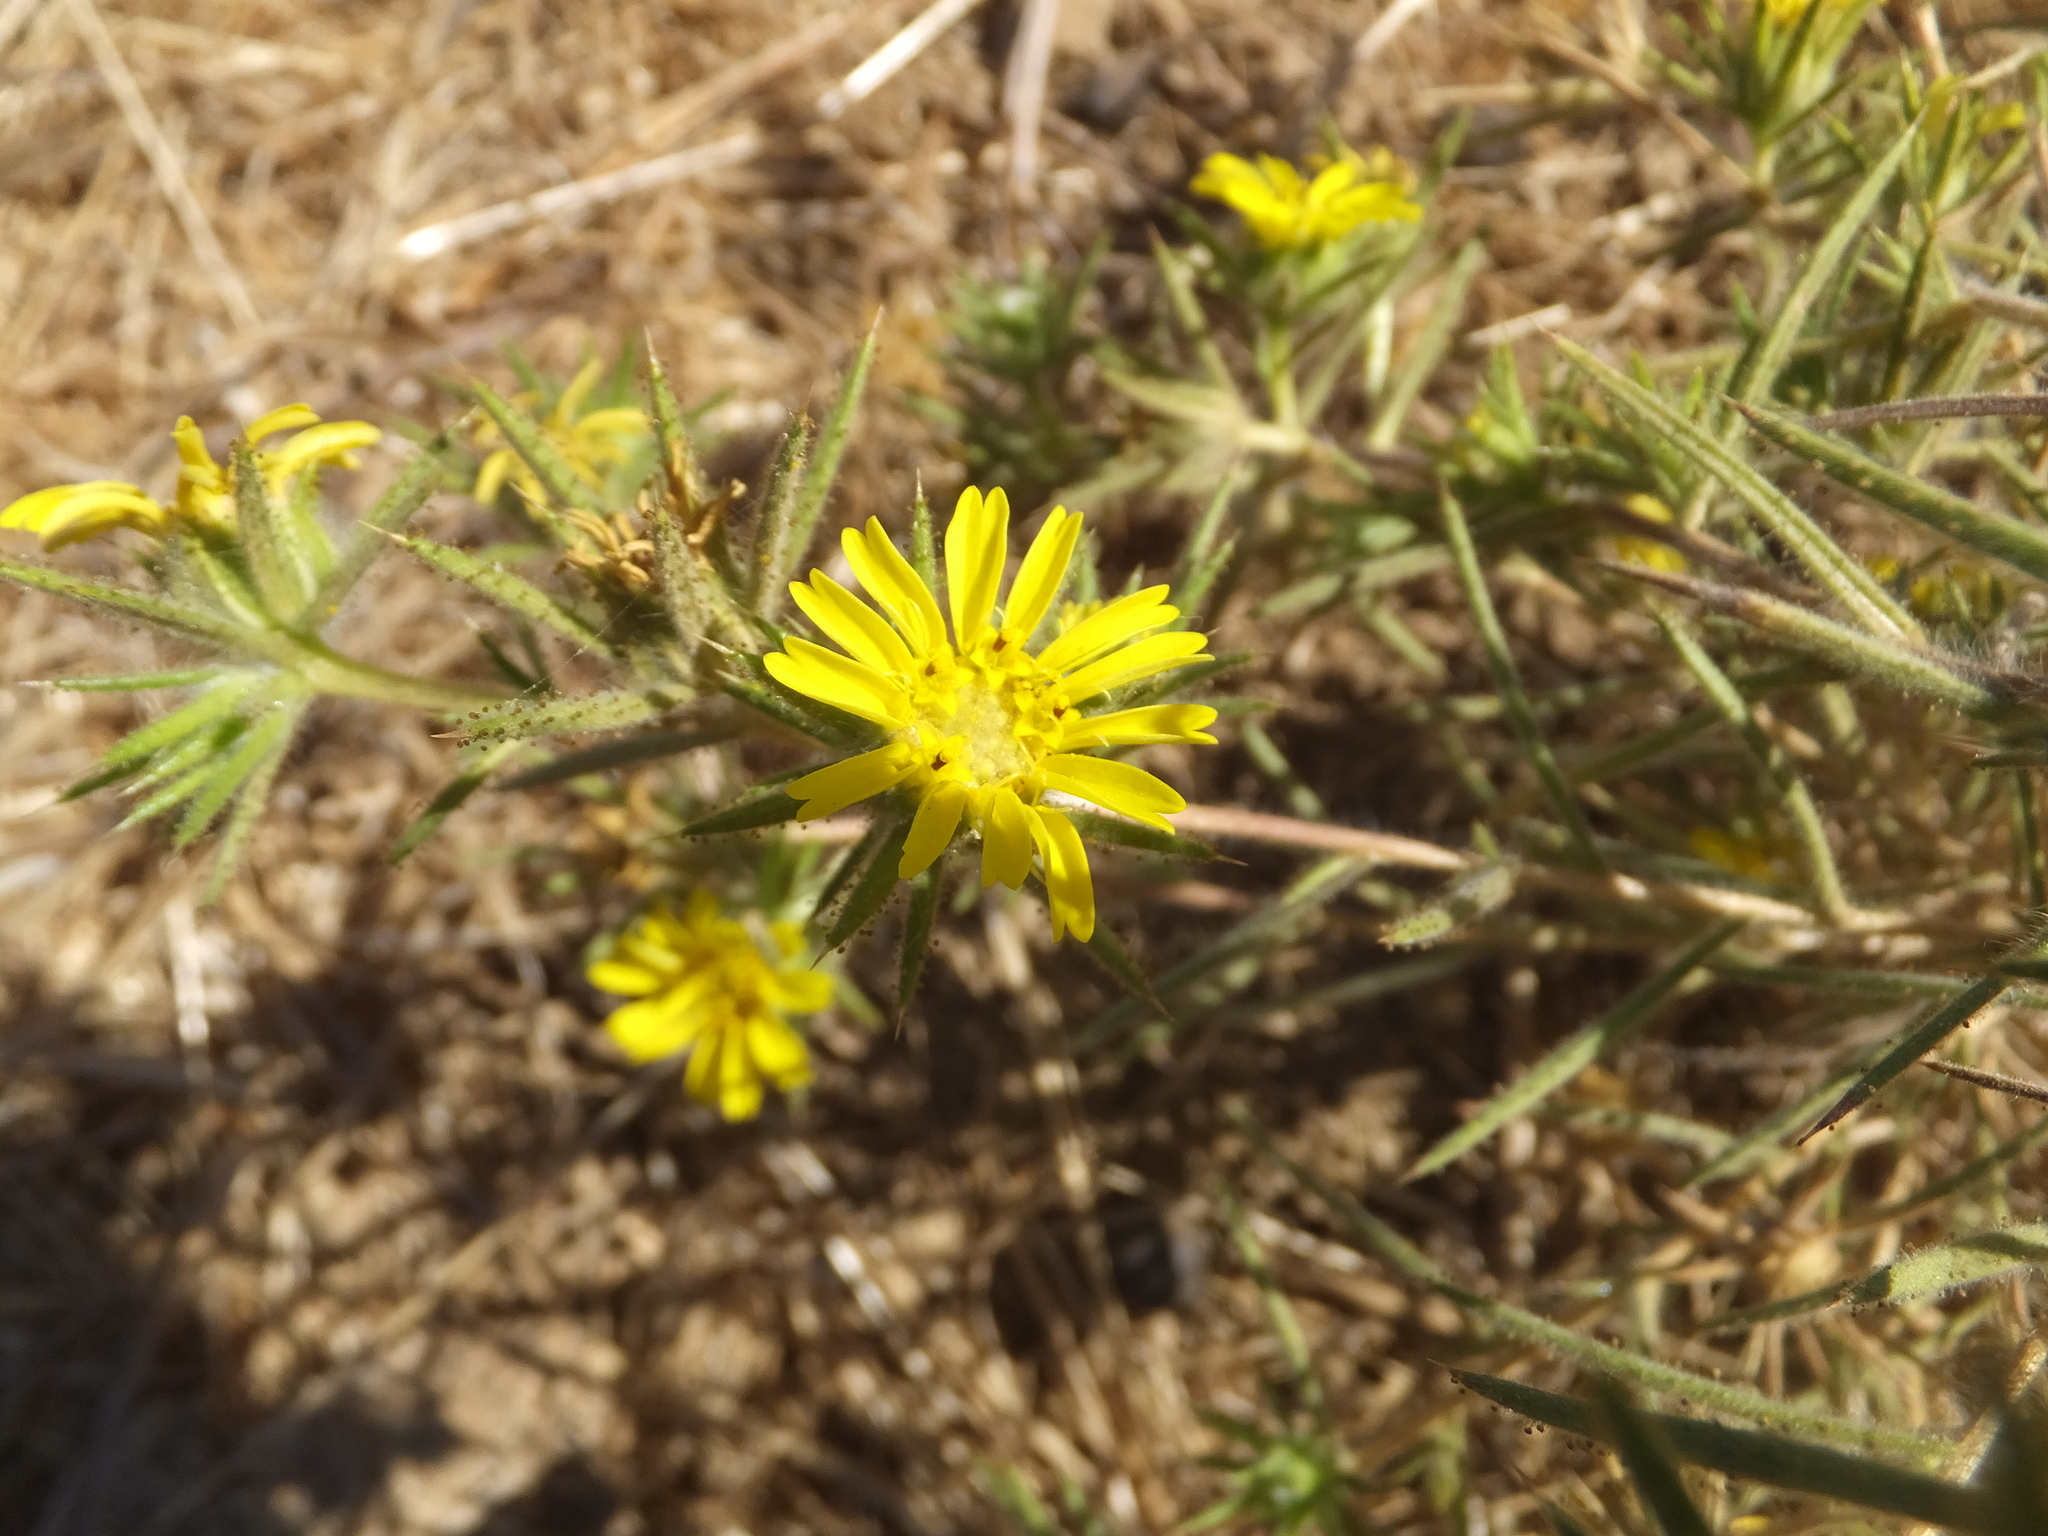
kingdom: Plantae
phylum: Tracheophyta
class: Magnoliopsida
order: Asterales
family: Asteraceae
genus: Centromadia
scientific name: Centromadia fitchii
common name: Fitch's spikeweed
